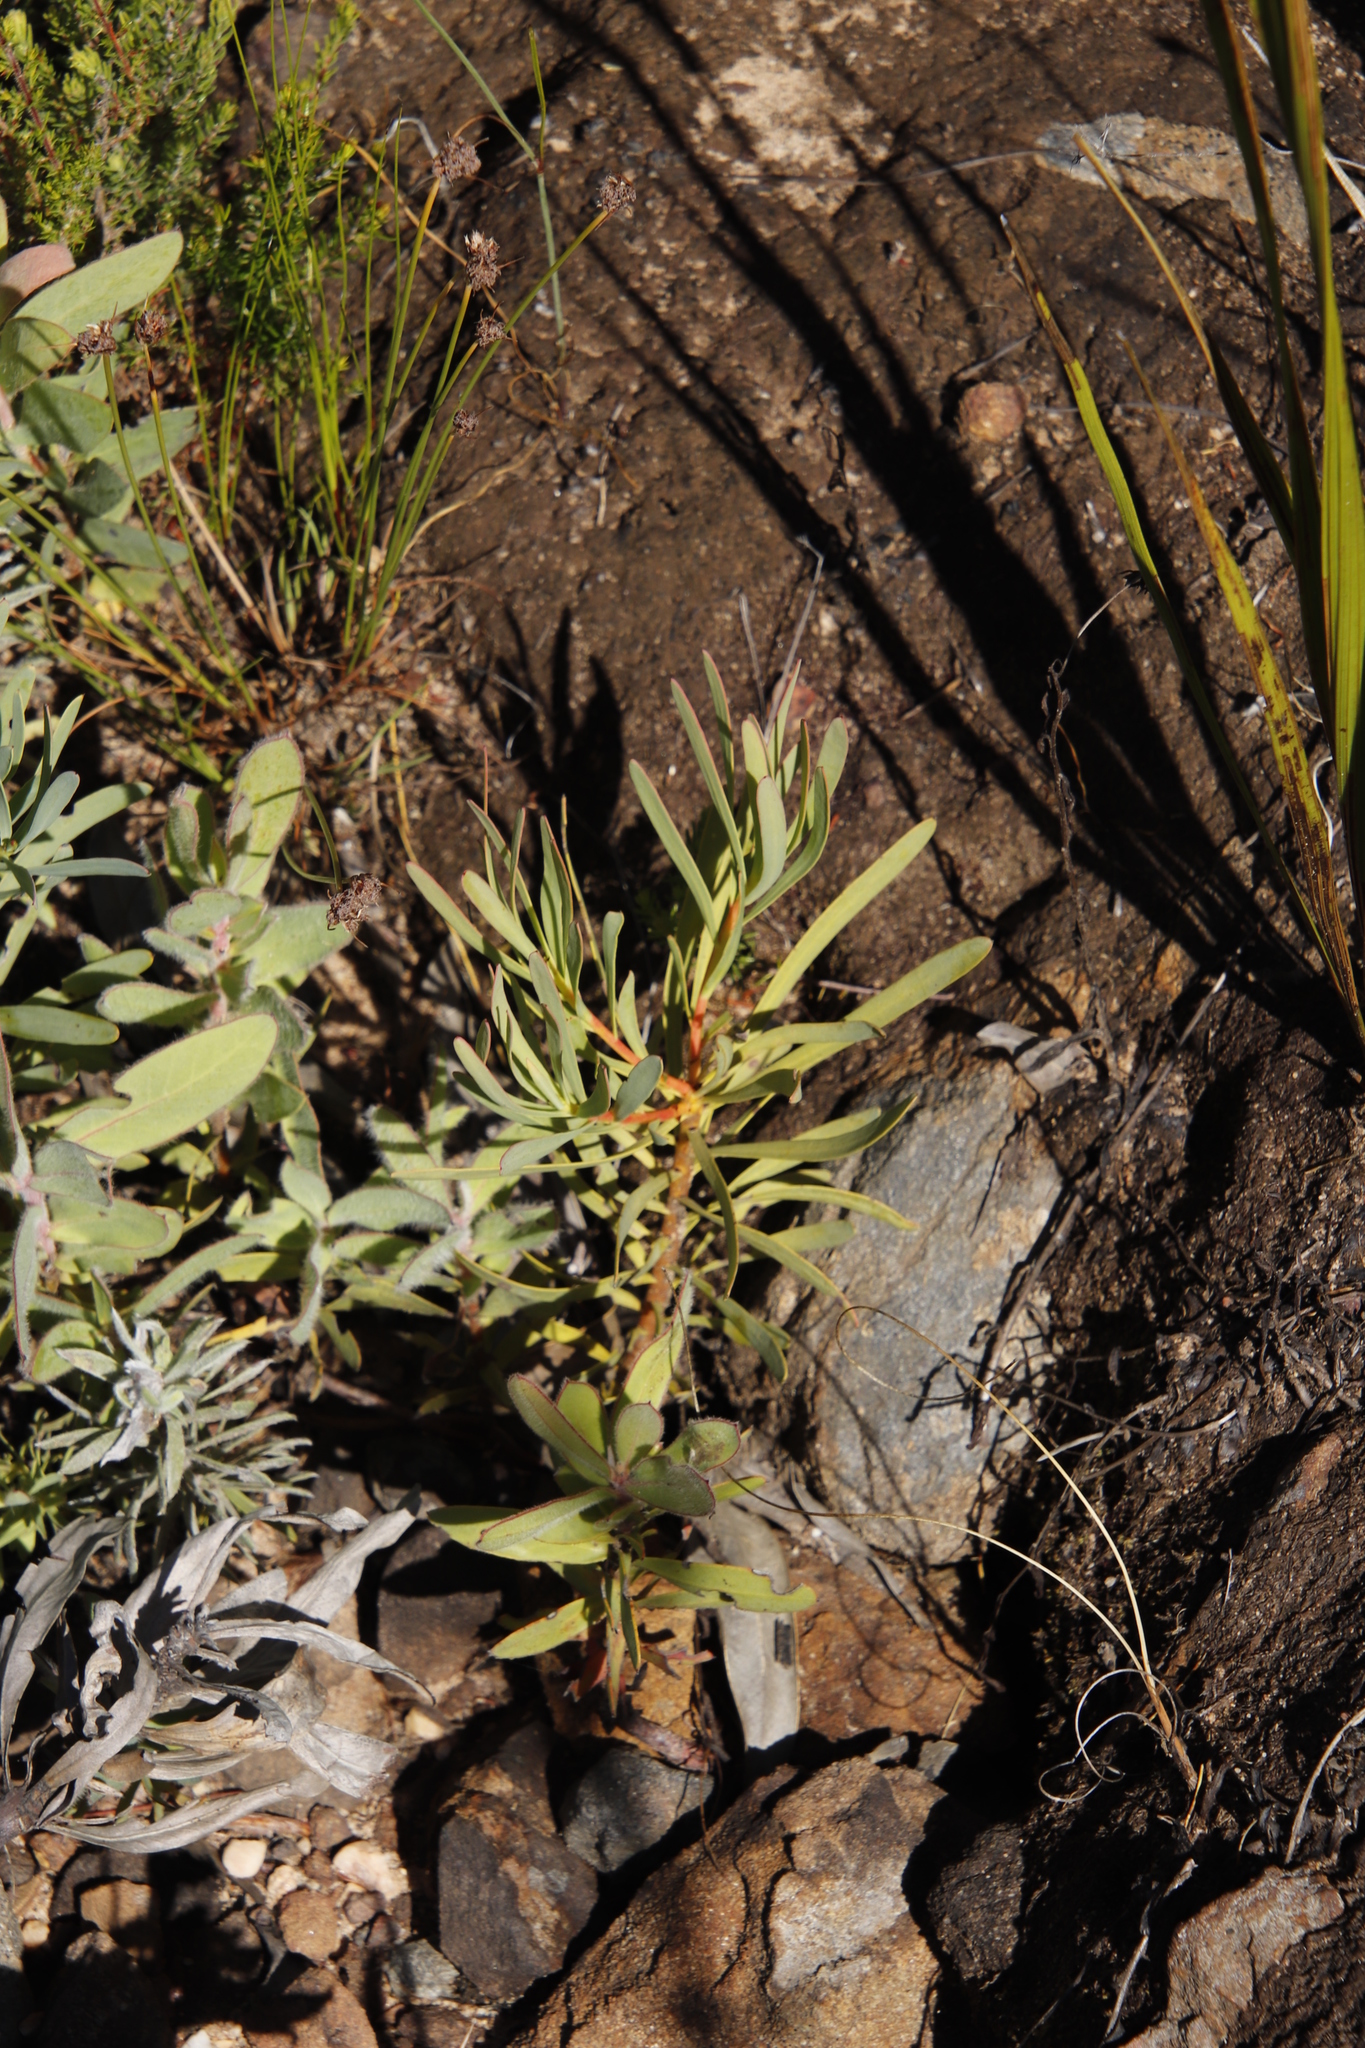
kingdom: Plantae
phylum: Tracheophyta
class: Magnoliopsida
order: Proteales
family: Proteaceae
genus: Protea
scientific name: Protea repens
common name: Sugarbush
